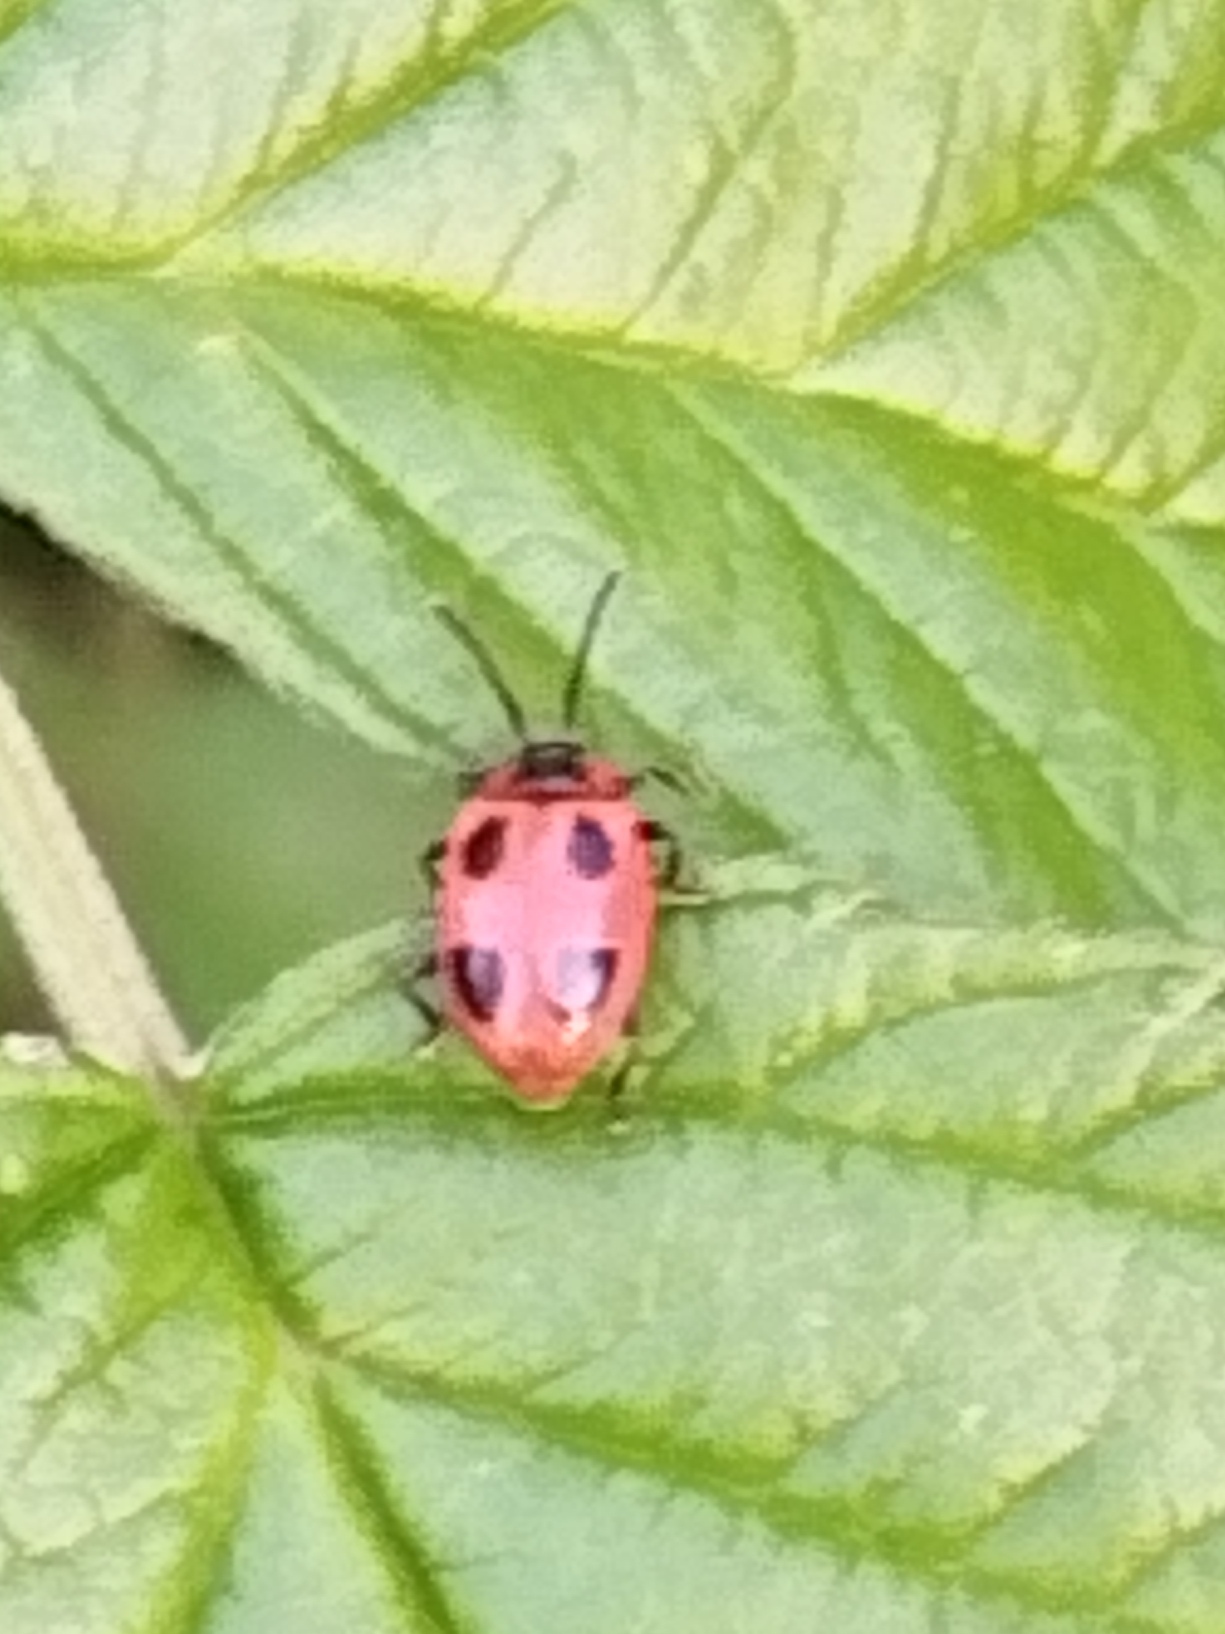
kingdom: Animalia
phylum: Arthropoda
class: Insecta
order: Coleoptera
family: Endomychidae
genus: Endomychus
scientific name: Endomychus coccineus
